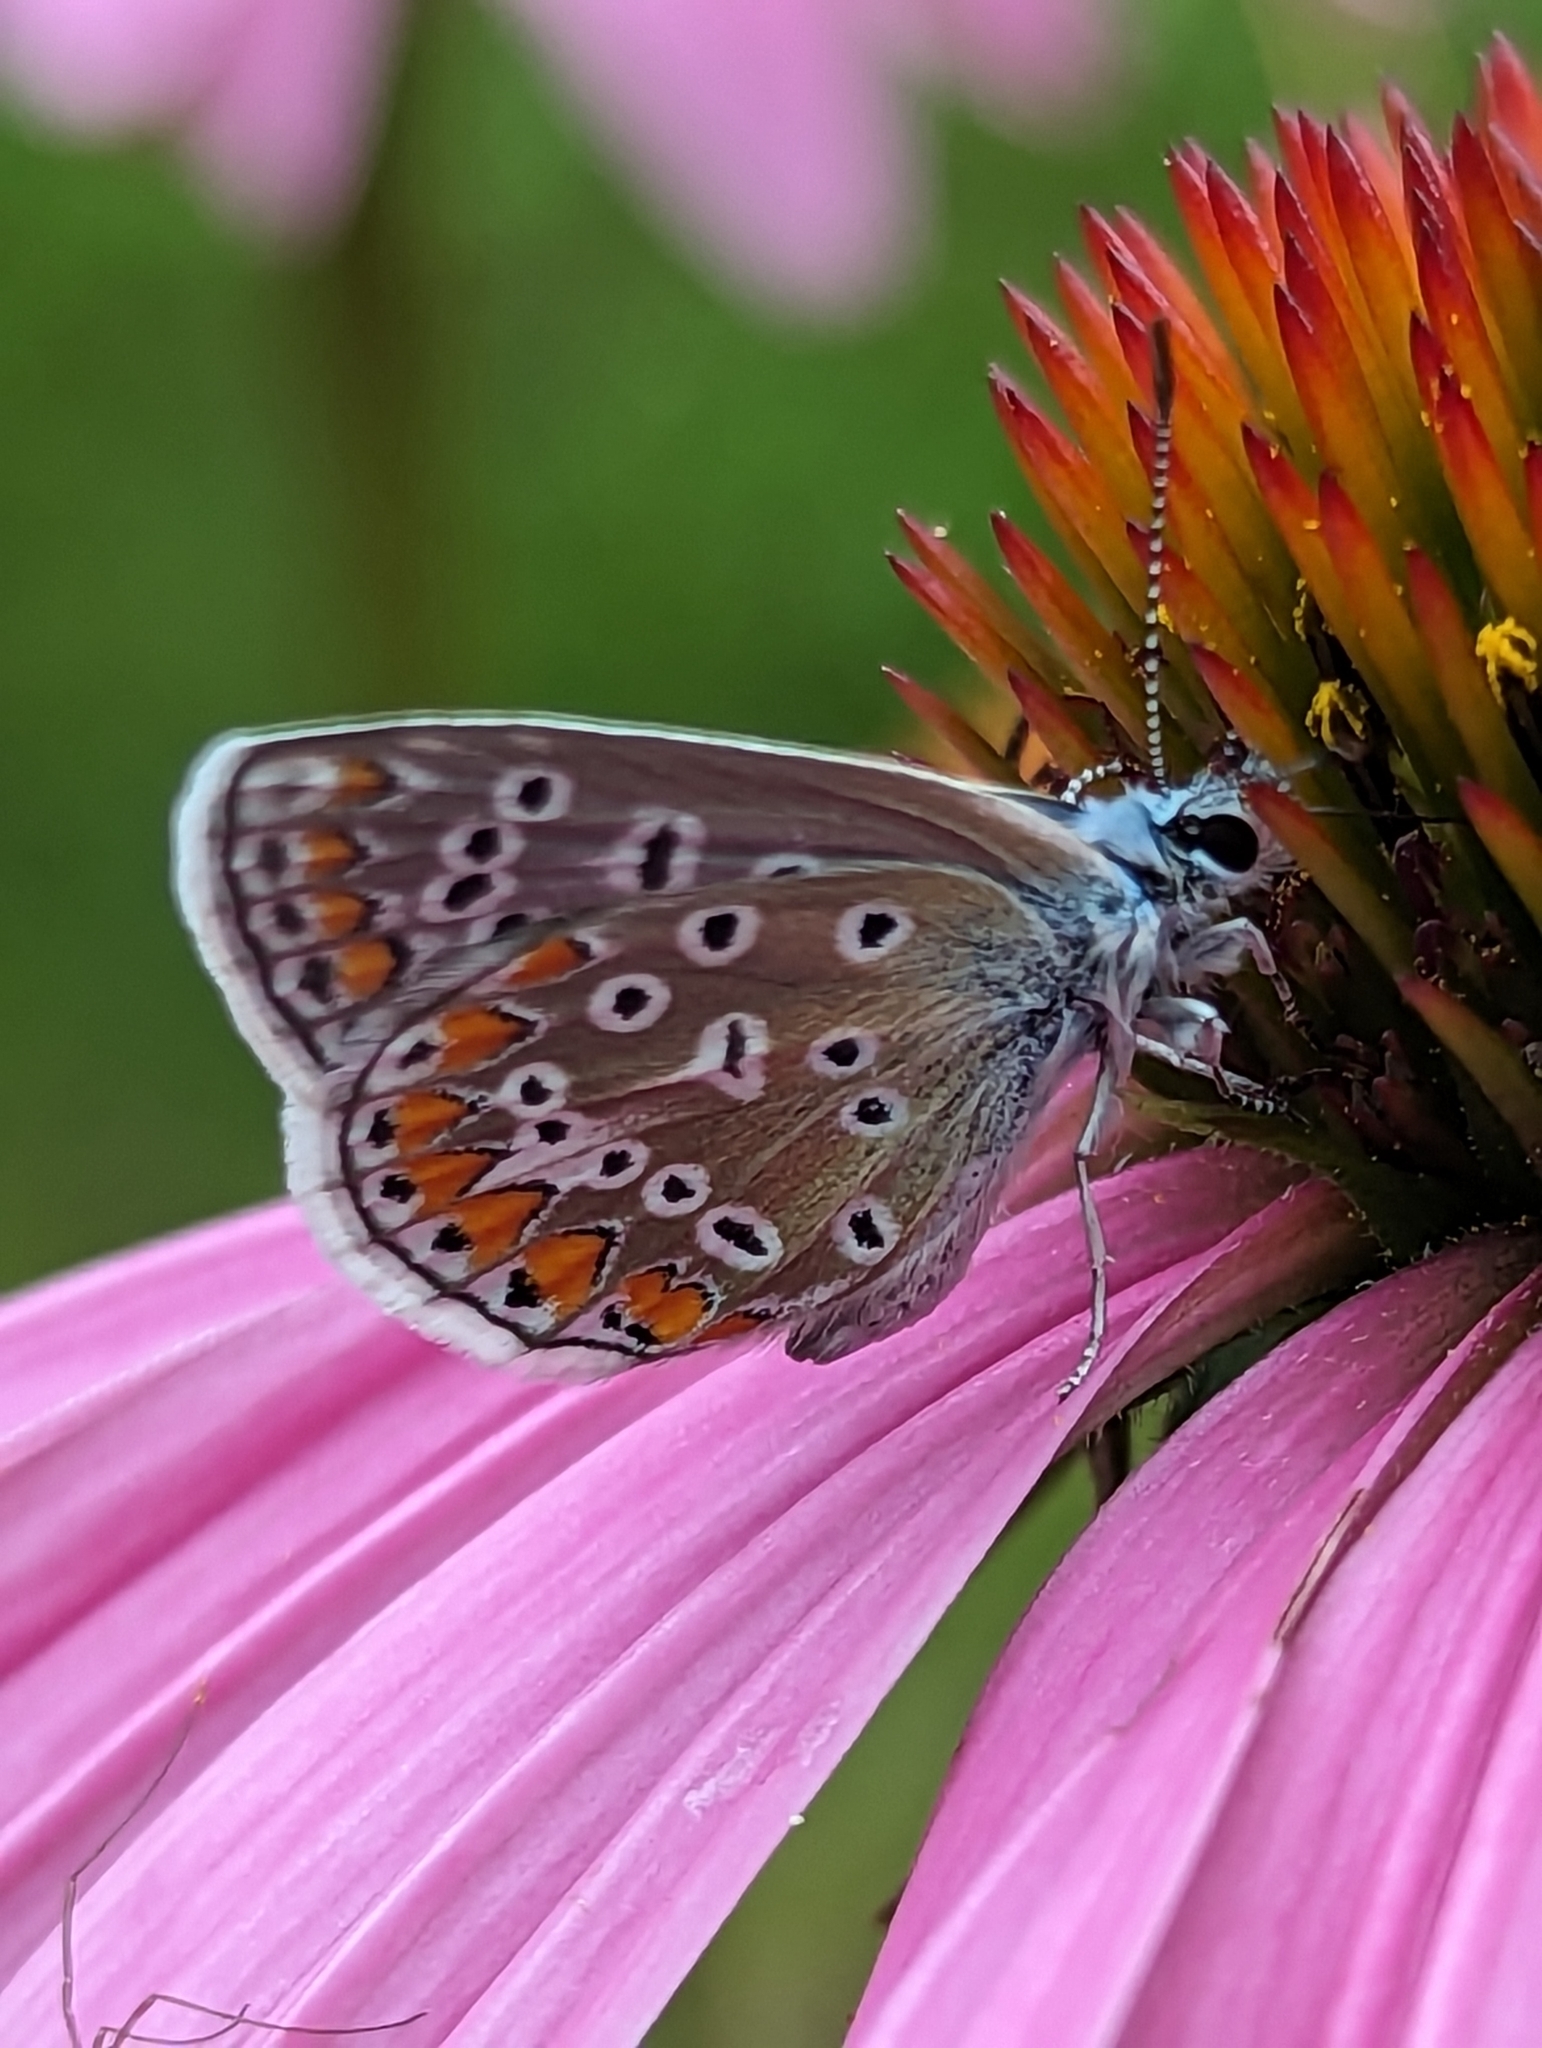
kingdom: Animalia
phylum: Arthropoda
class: Insecta
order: Lepidoptera
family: Lycaenidae
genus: Polyommatus
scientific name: Polyommatus icarus
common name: Common blue
